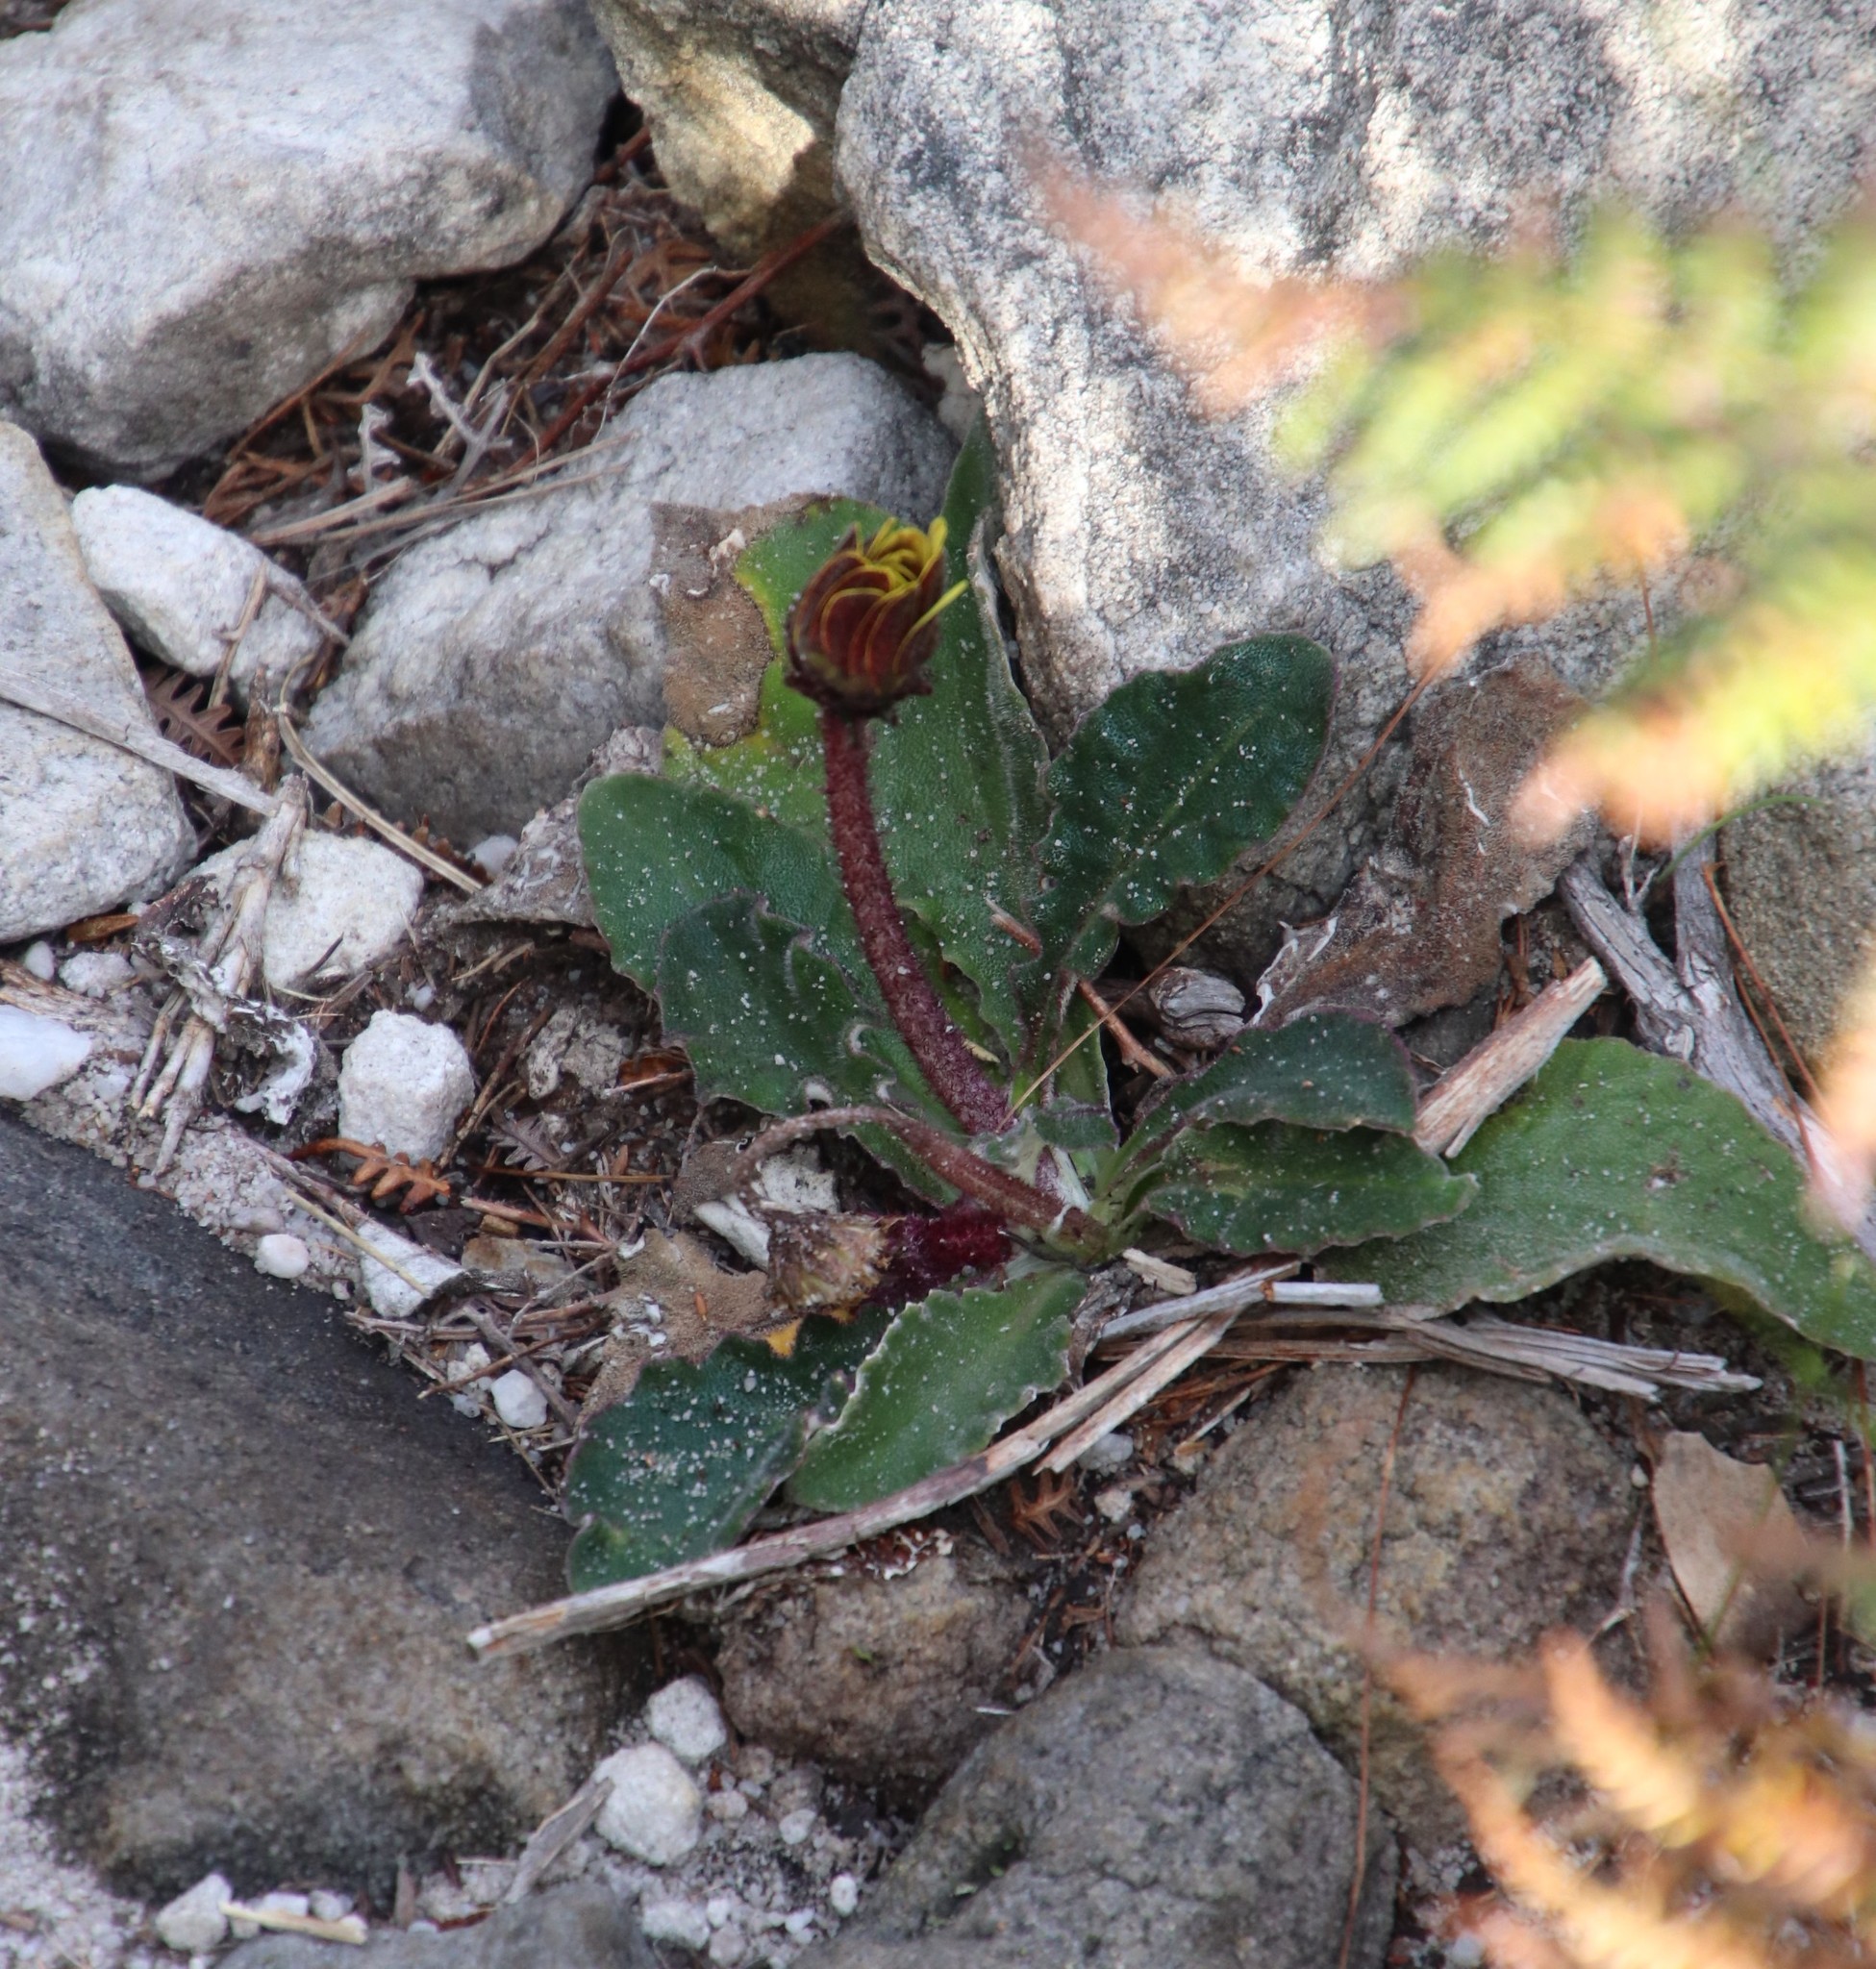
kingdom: Plantae
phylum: Tracheophyta
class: Magnoliopsida
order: Asterales
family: Asteraceae
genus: Haplocarpha
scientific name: Haplocarpha lanata
